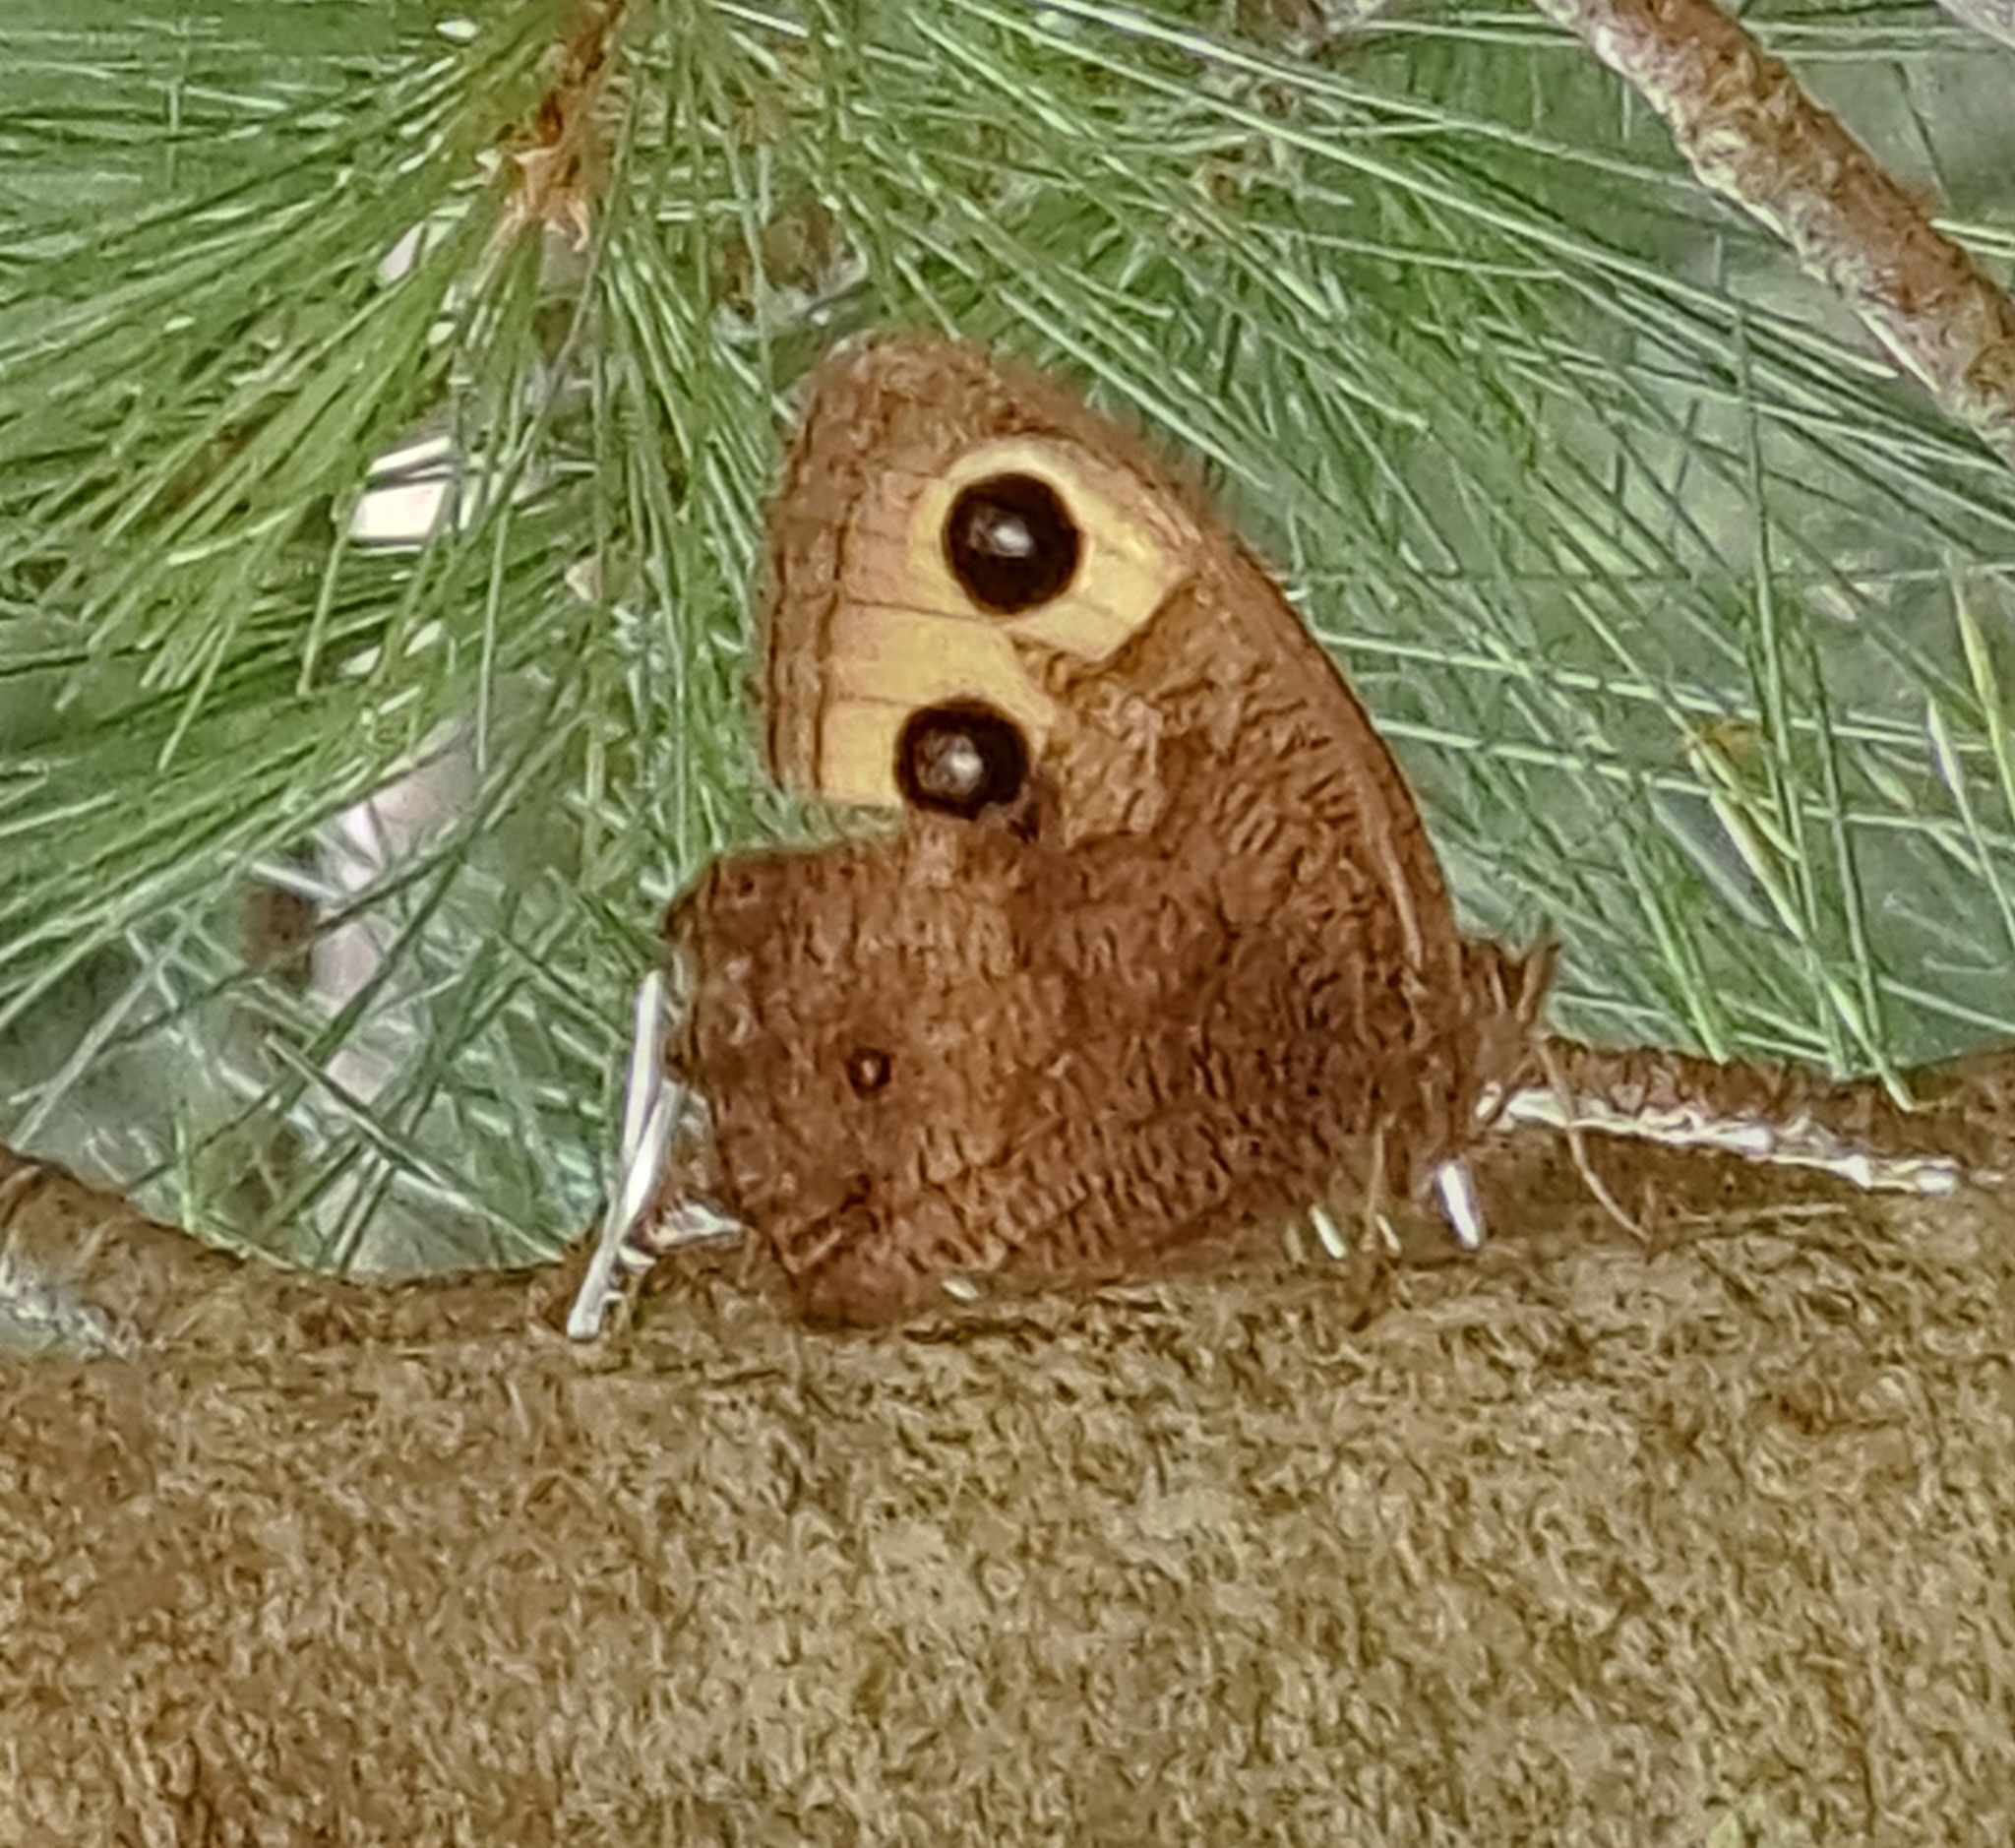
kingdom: Animalia
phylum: Arthropoda
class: Insecta
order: Lepidoptera
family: Nymphalidae
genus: Cercyonis
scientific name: Cercyonis pegala
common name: Common wood-nymph
